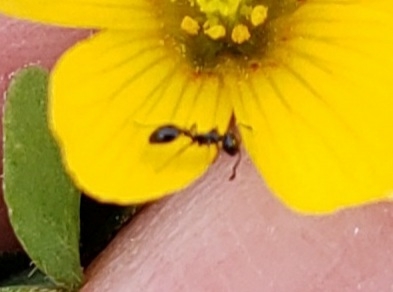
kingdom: Animalia
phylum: Arthropoda
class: Insecta
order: Hymenoptera
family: Formicidae
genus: Monomorium
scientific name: Monomorium ergatogyna
